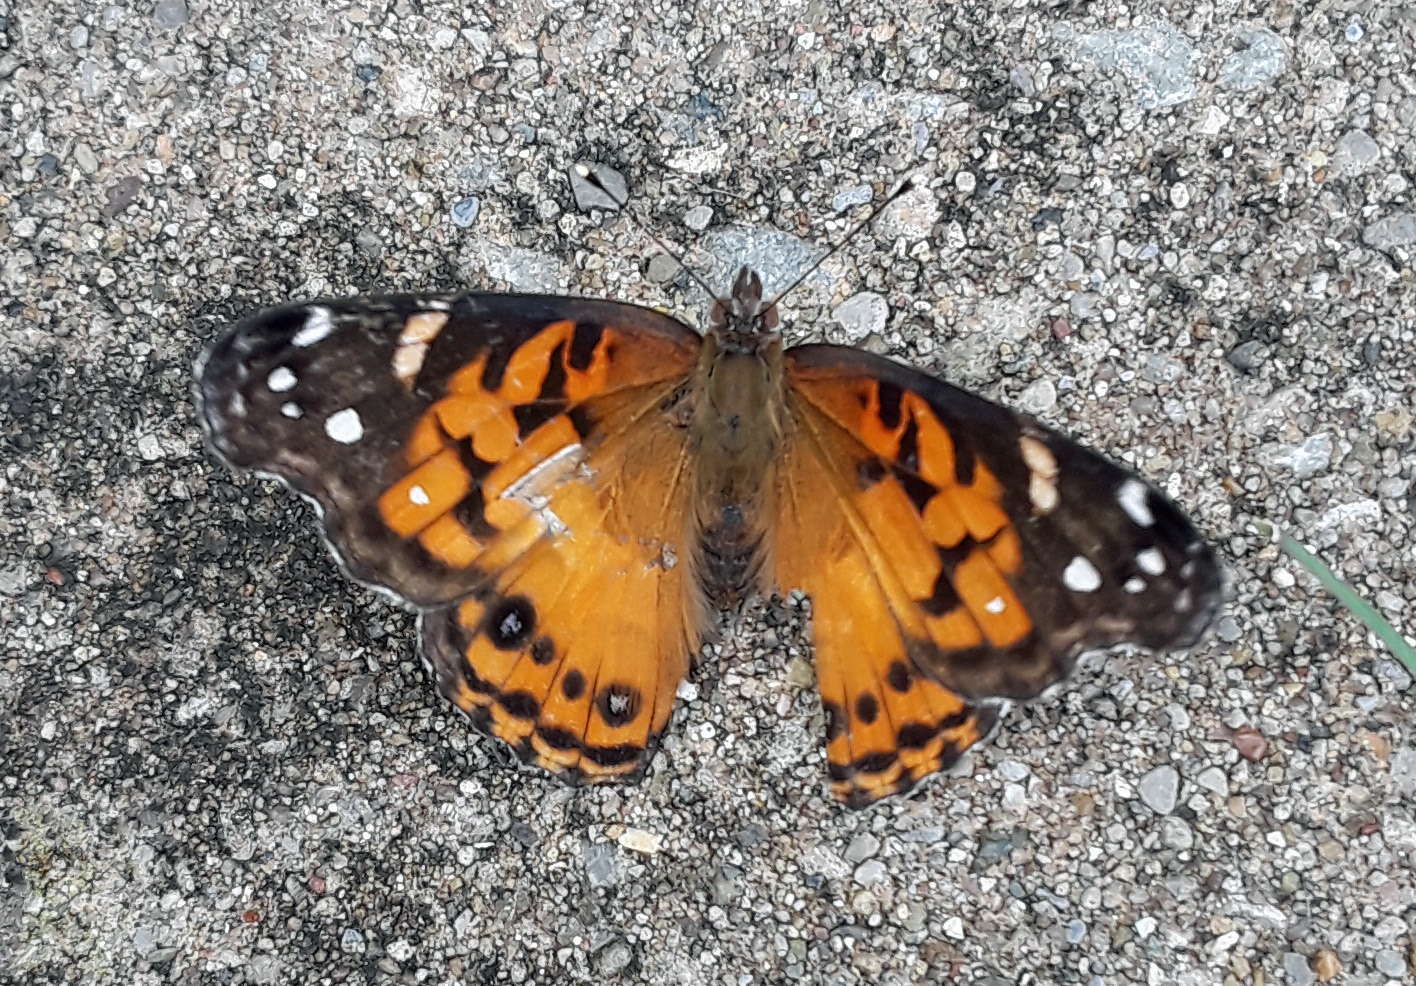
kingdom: Animalia
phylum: Arthropoda
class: Insecta
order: Lepidoptera
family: Nymphalidae
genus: Vanessa
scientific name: Vanessa virginiensis
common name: American lady
